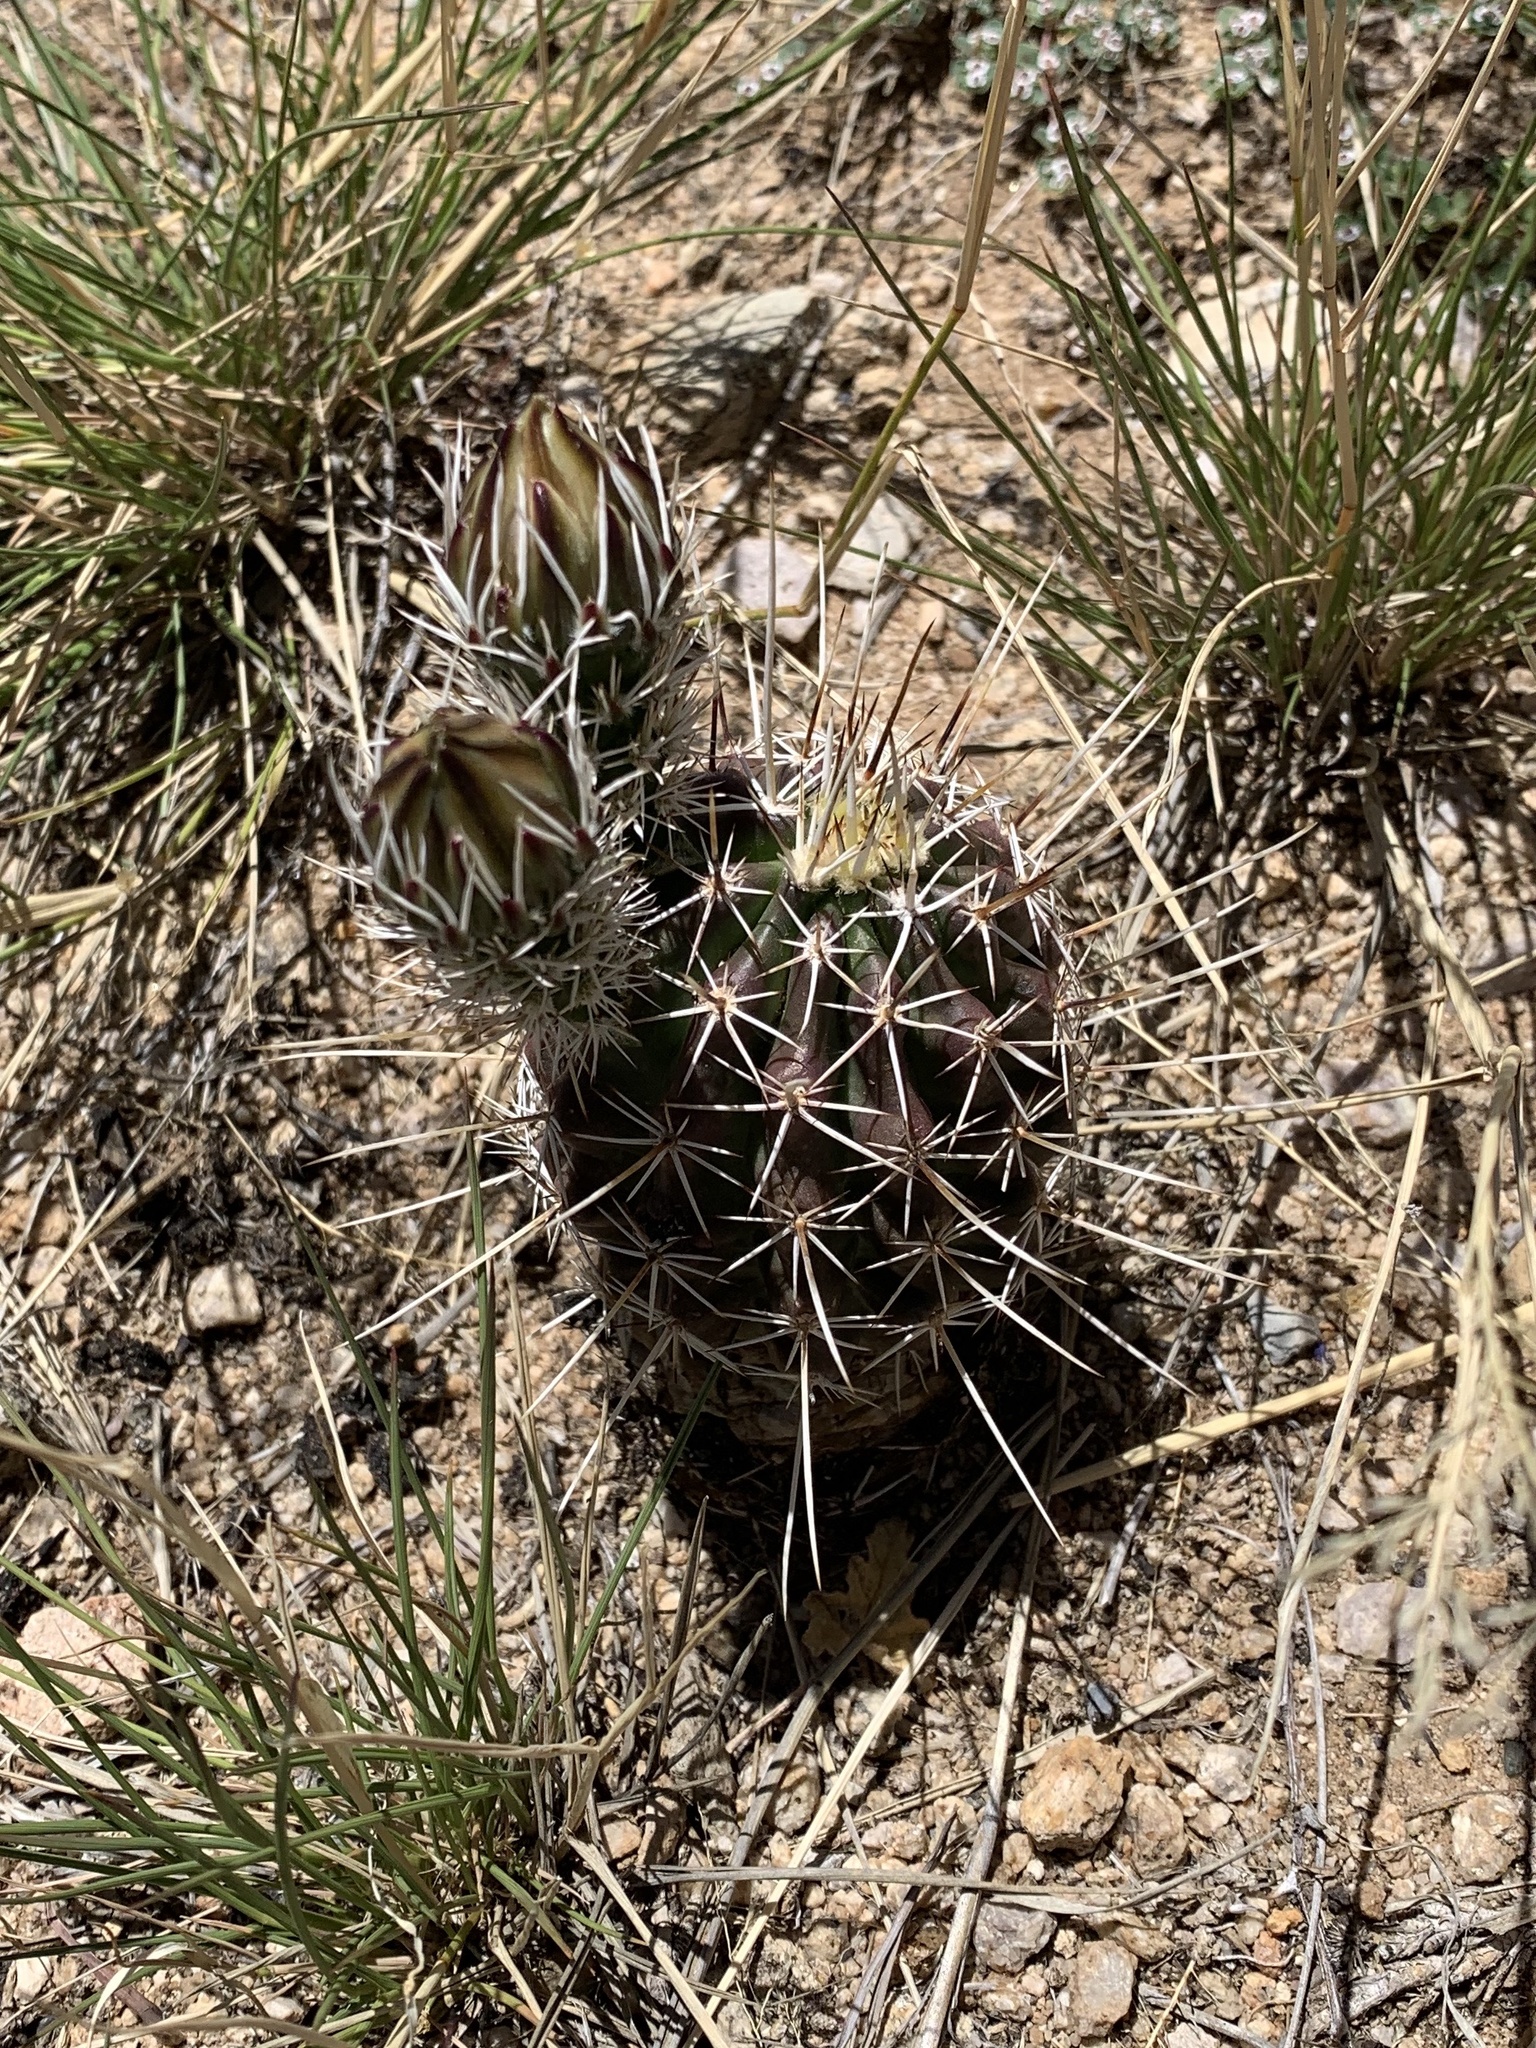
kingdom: Plantae
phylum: Tracheophyta
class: Magnoliopsida
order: Caryophyllales
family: Cactaceae
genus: Echinocereus
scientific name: Echinocereus fendleri
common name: Fendler's hedgehog cactus
